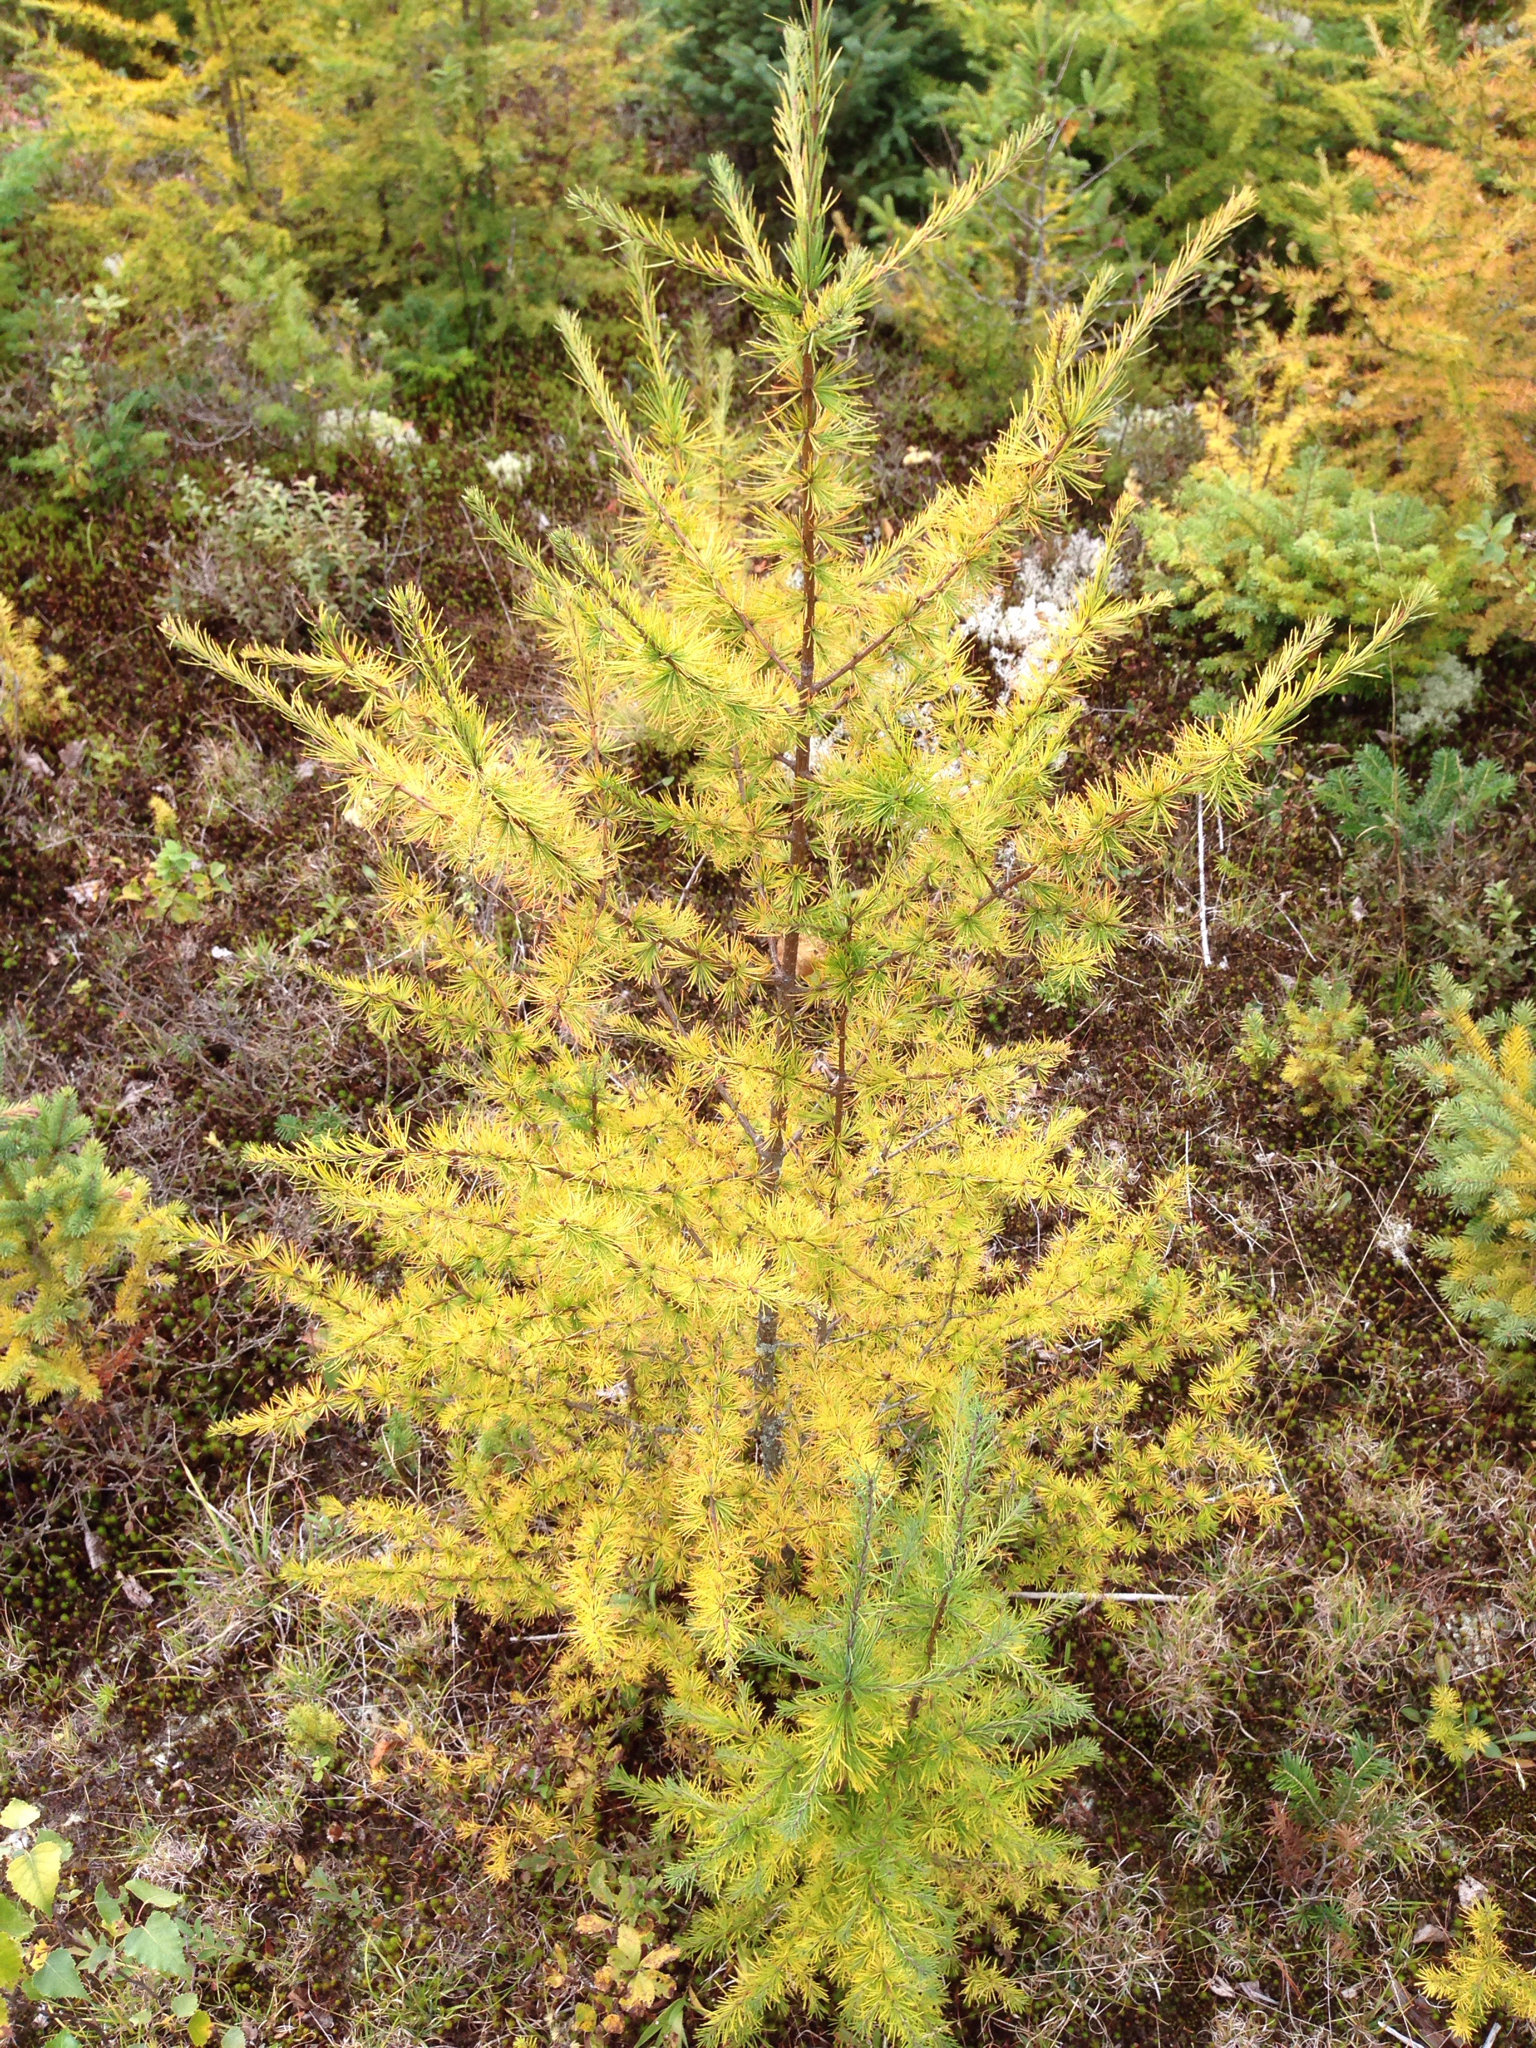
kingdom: Plantae
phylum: Tracheophyta
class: Pinopsida
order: Pinales
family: Pinaceae
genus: Larix
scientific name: Larix laricina
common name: American larch
